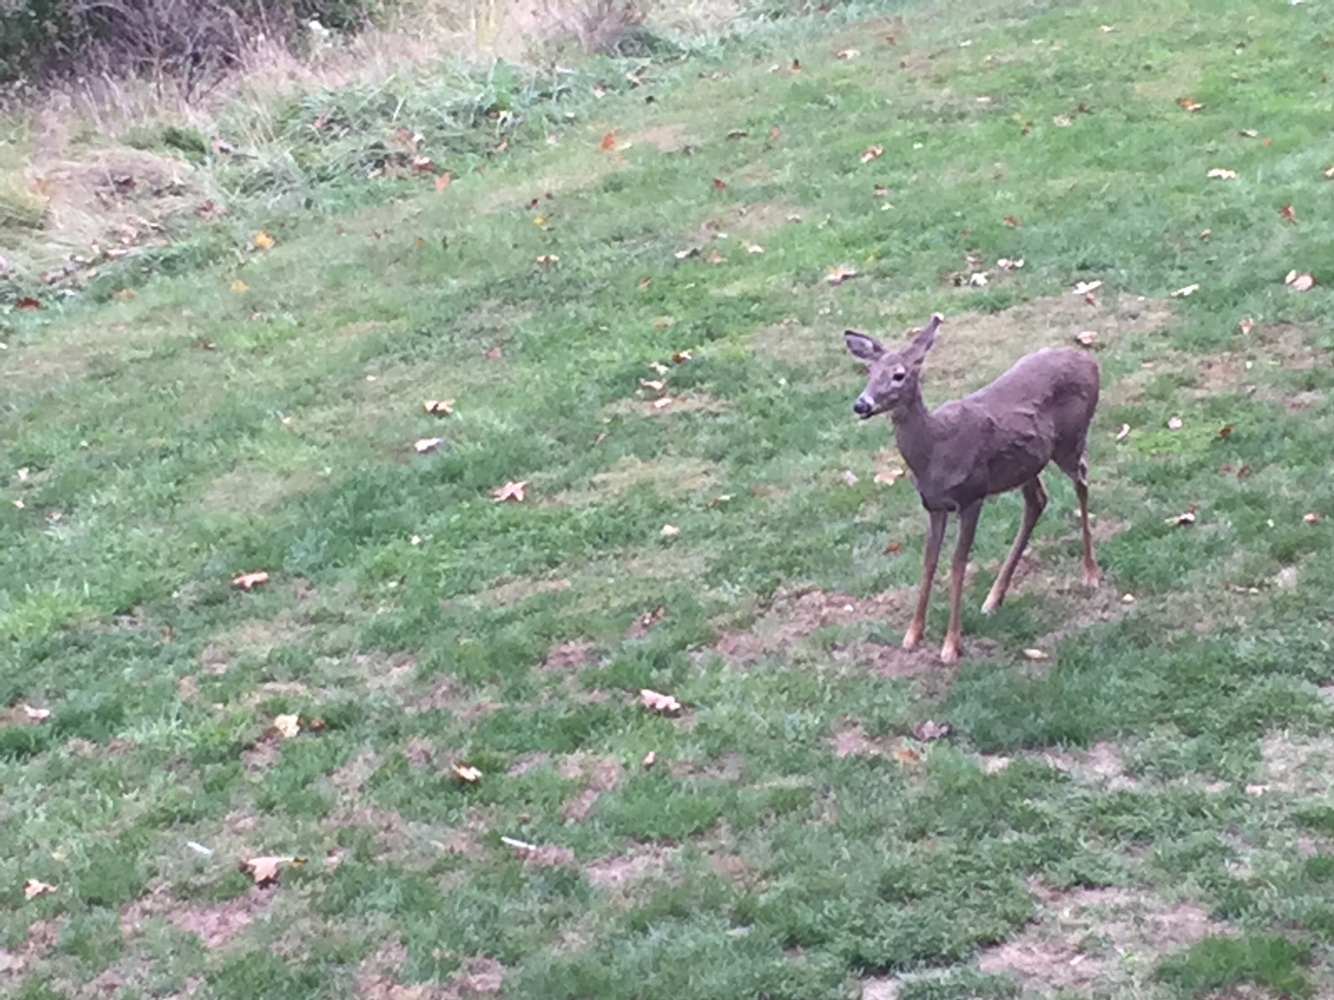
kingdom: Animalia
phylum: Chordata
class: Mammalia
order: Artiodactyla
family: Cervidae
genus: Odocoileus
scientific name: Odocoileus virginianus
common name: White-tailed deer
